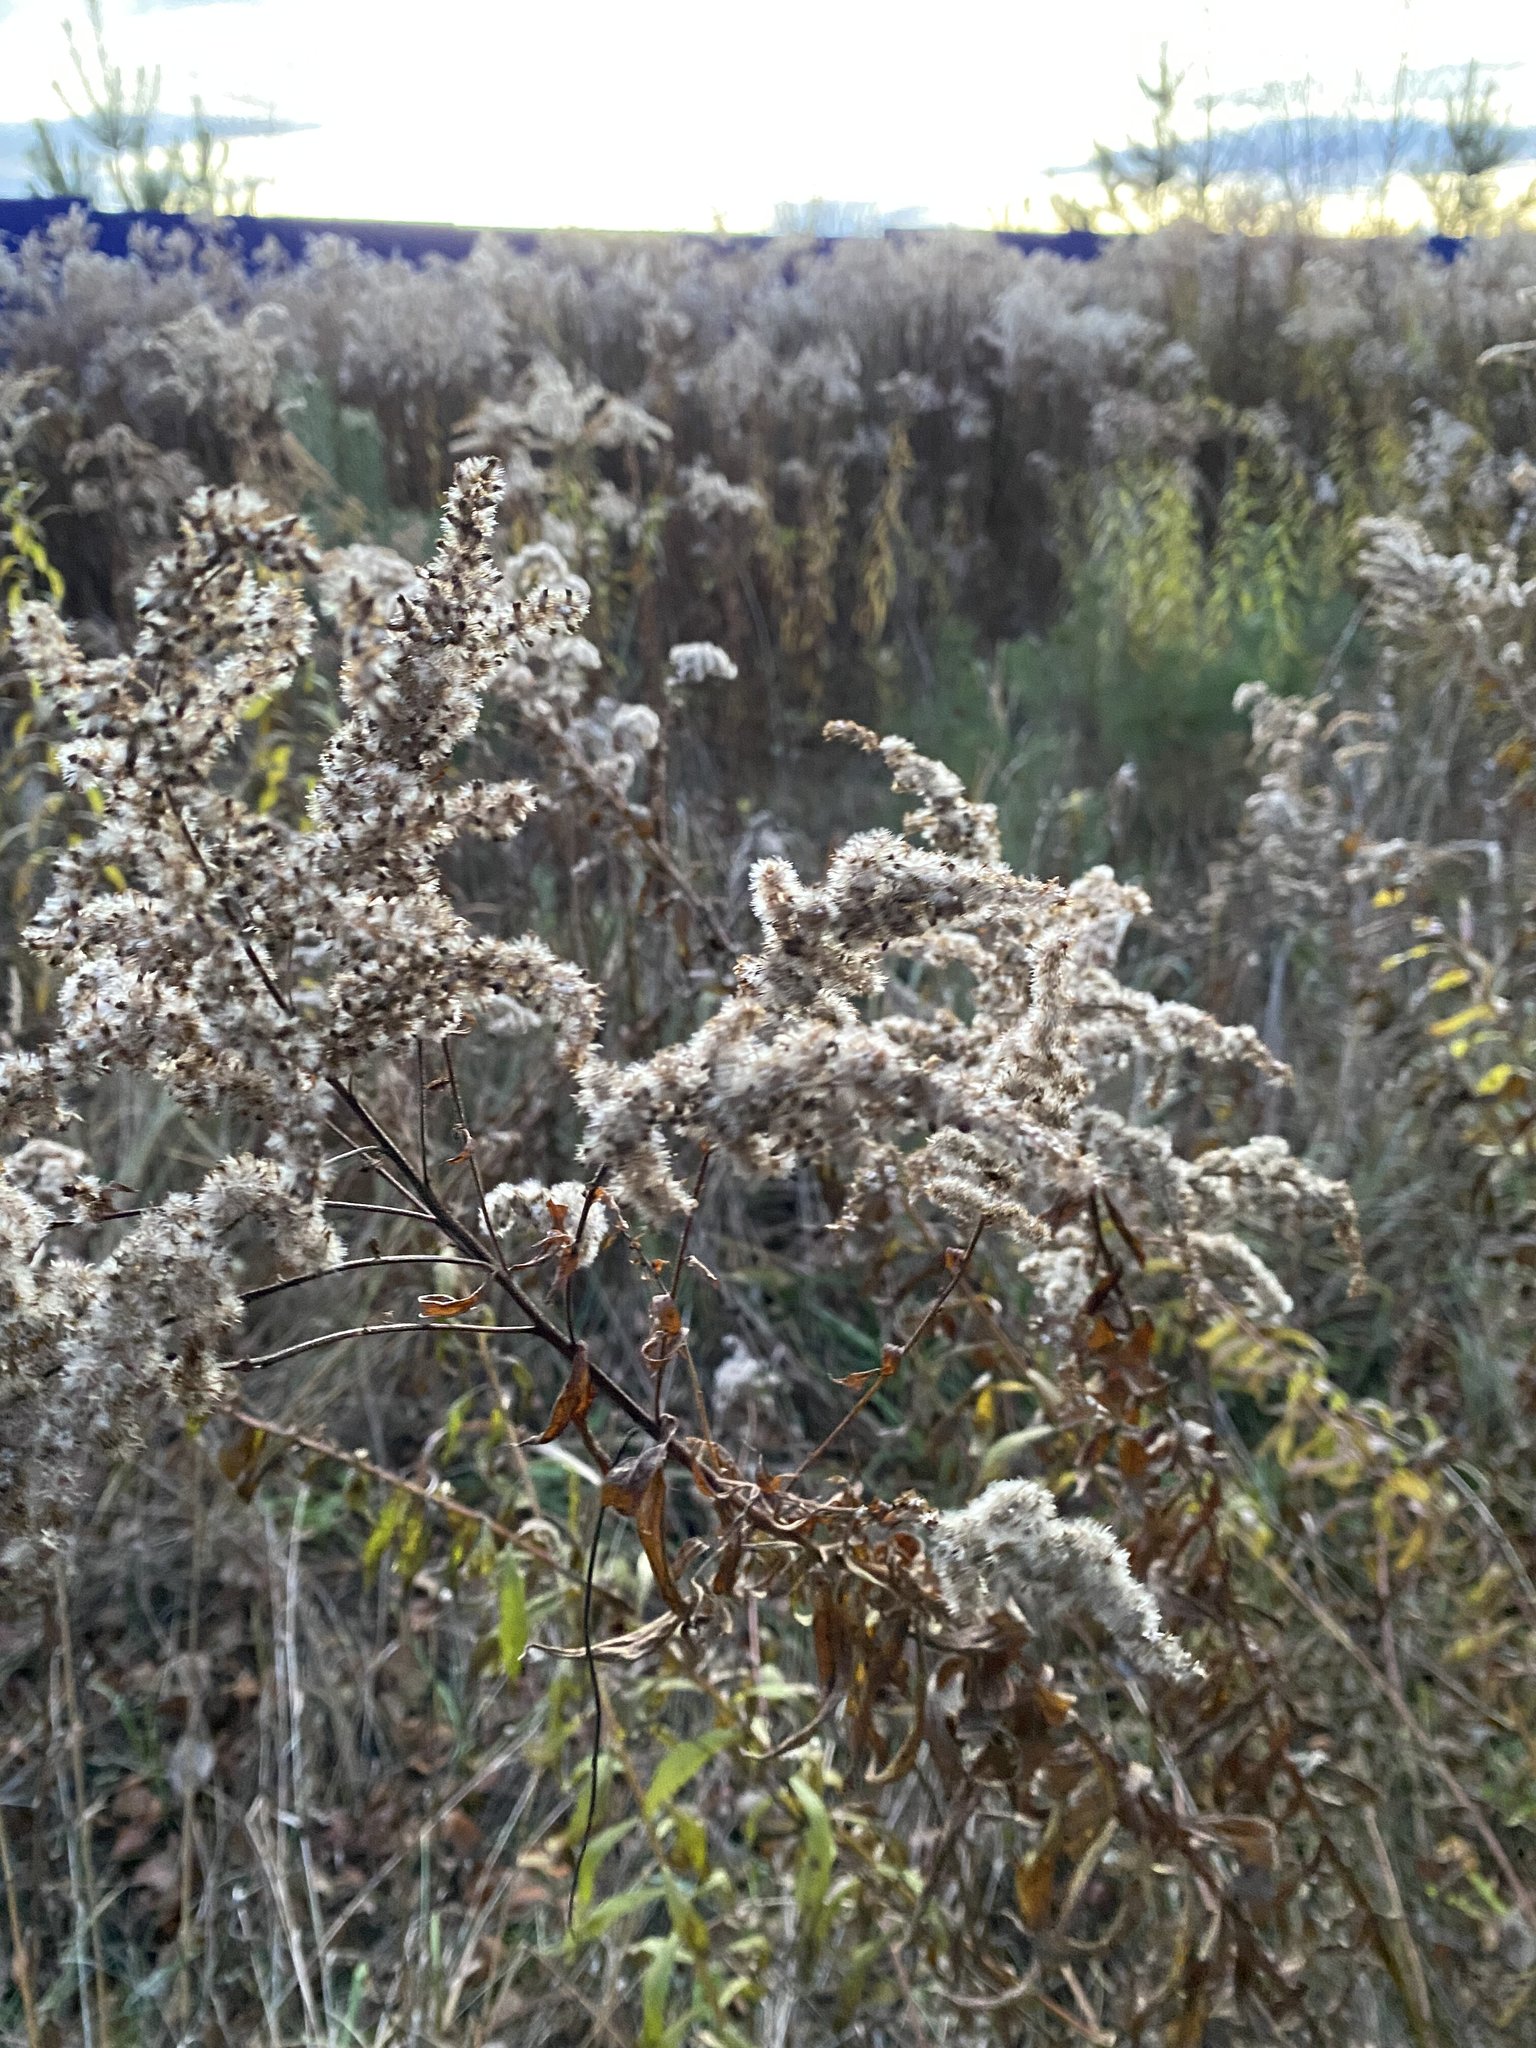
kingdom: Plantae
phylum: Tracheophyta
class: Magnoliopsida
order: Asterales
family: Asteraceae
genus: Solidago
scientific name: Solidago canadensis
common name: Canada goldenrod
